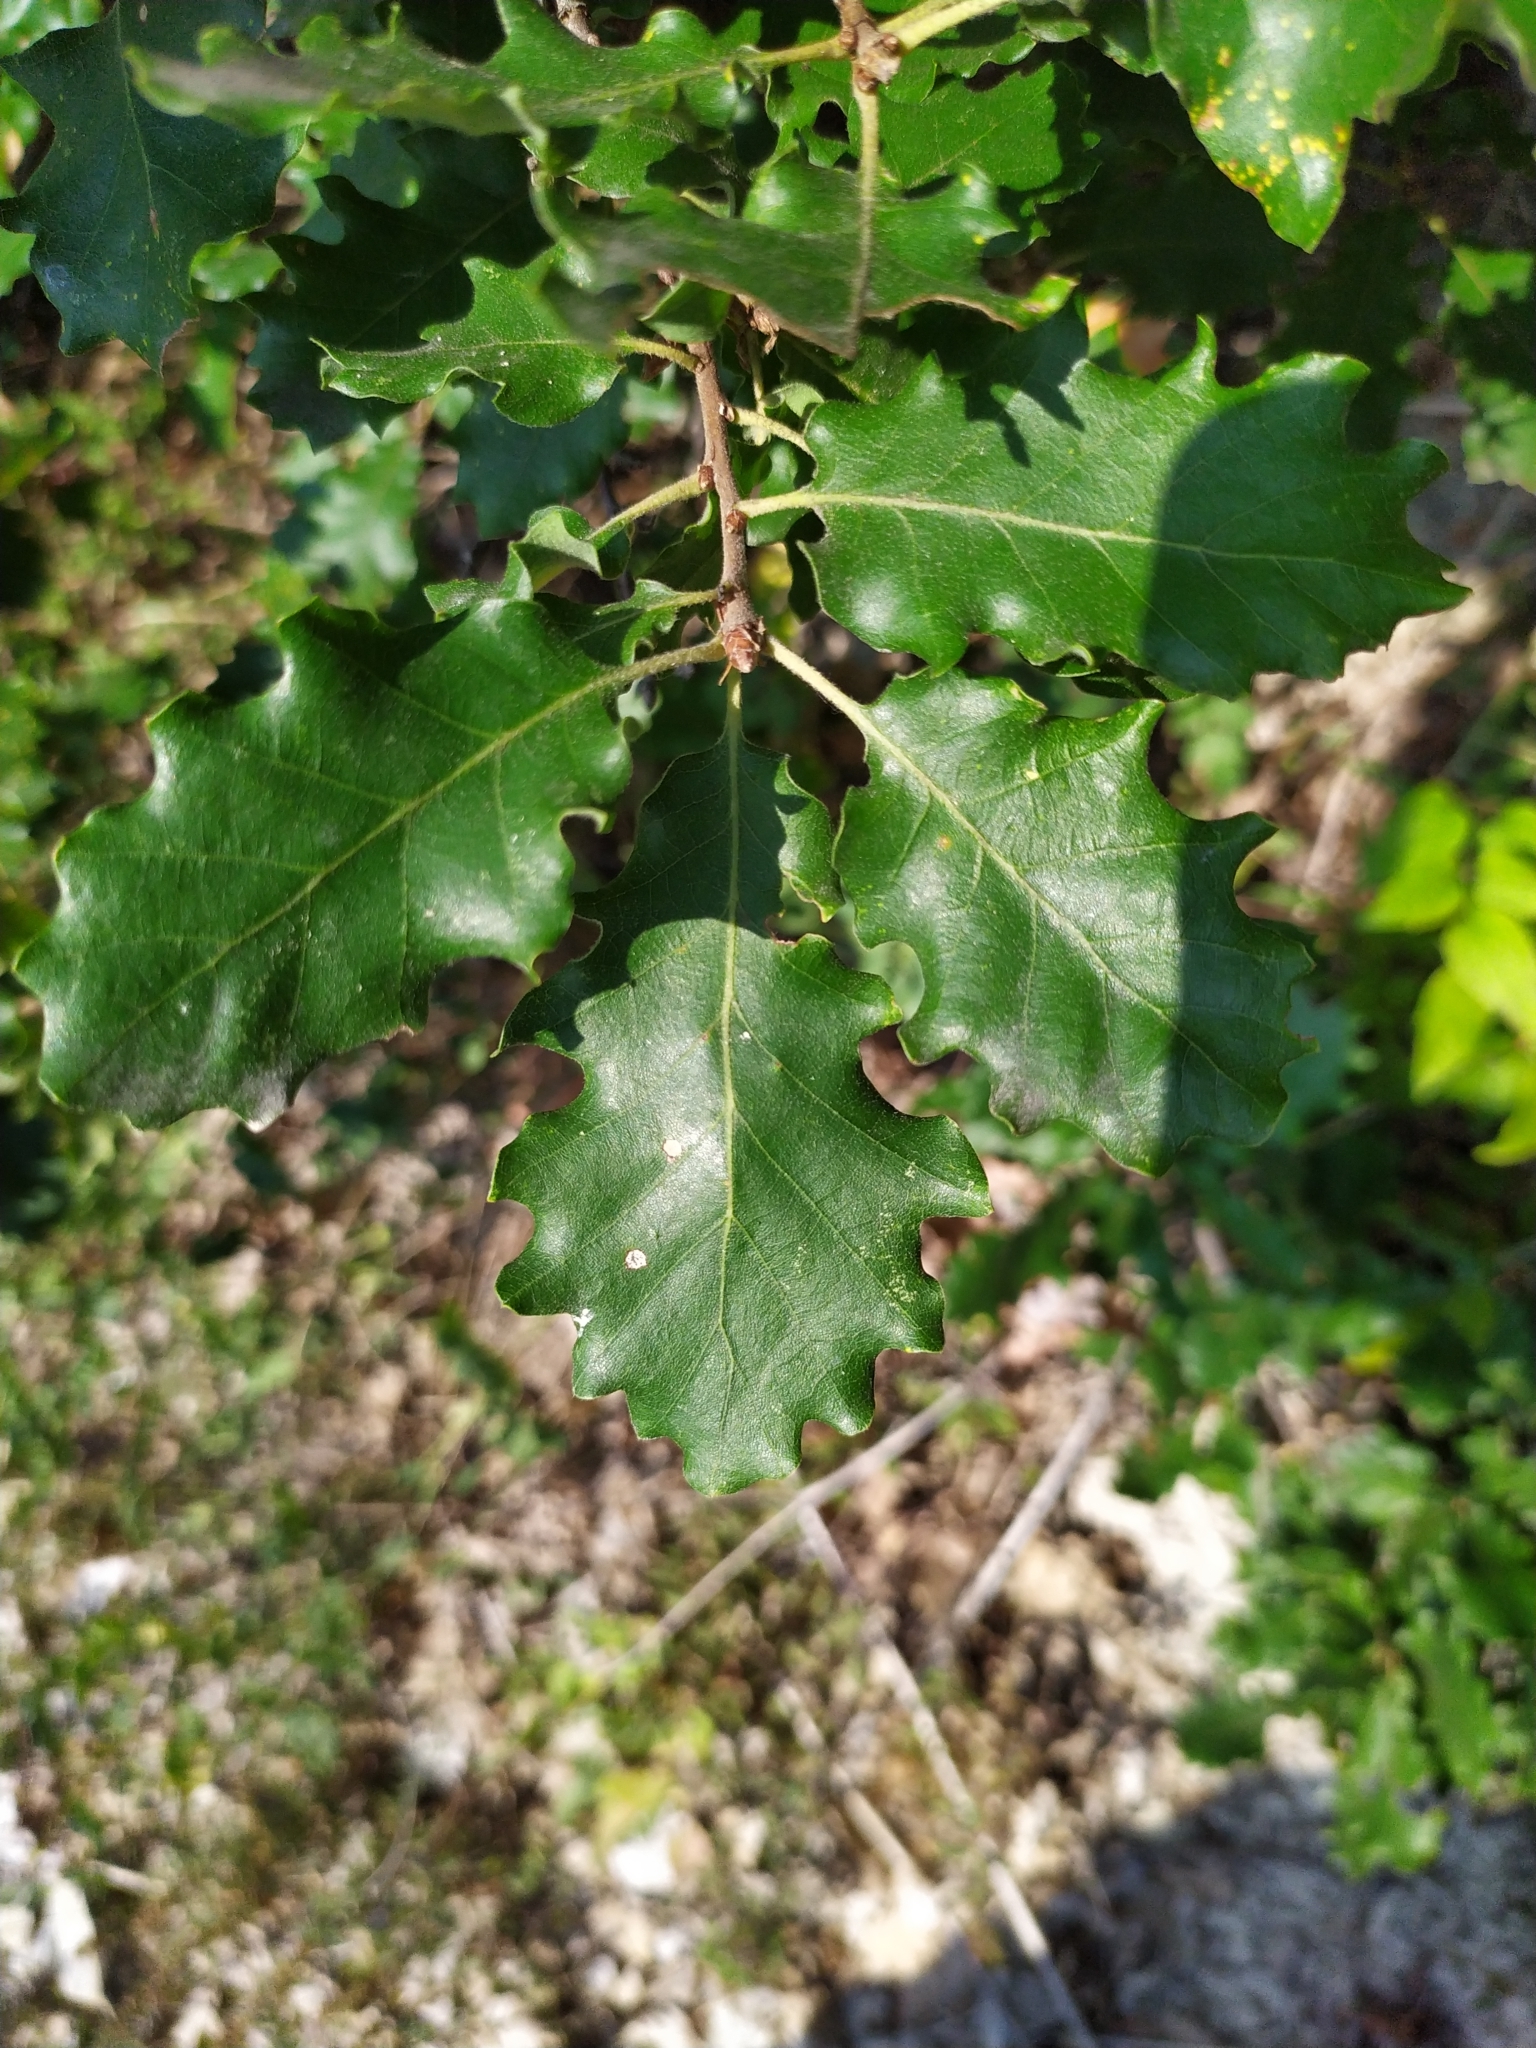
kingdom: Plantae
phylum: Tracheophyta
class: Magnoliopsida
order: Fagales
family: Fagaceae
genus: Quercus
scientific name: Quercus pubescens
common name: Downy oak
